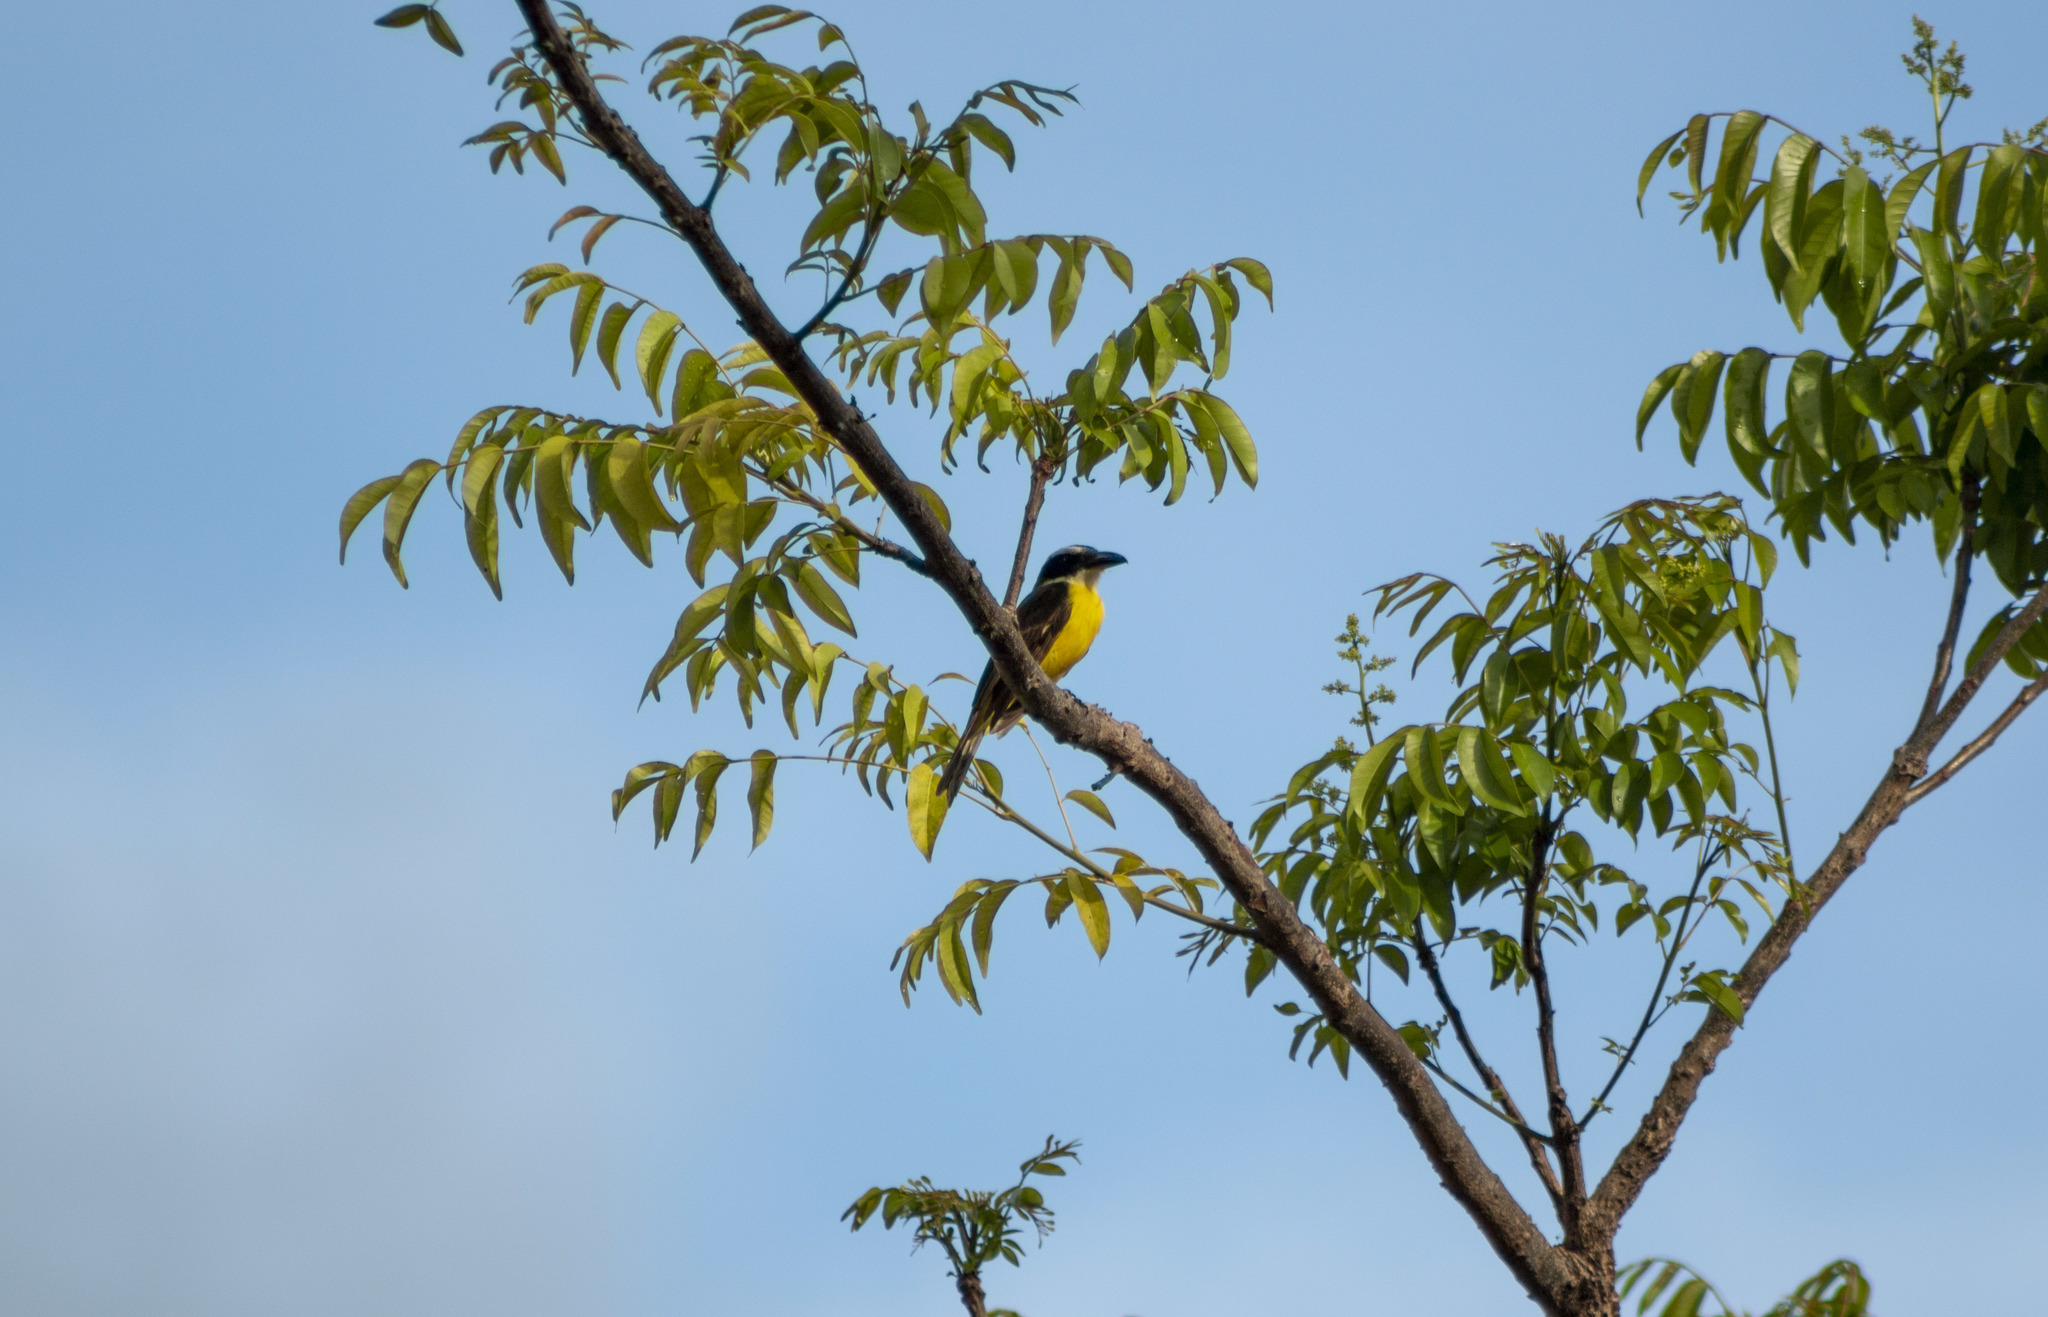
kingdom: Animalia
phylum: Chordata
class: Aves
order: Passeriformes
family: Tyrannidae
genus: Megarynchus
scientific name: Megarynchus pitangua
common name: Boat-billed flycatcher
